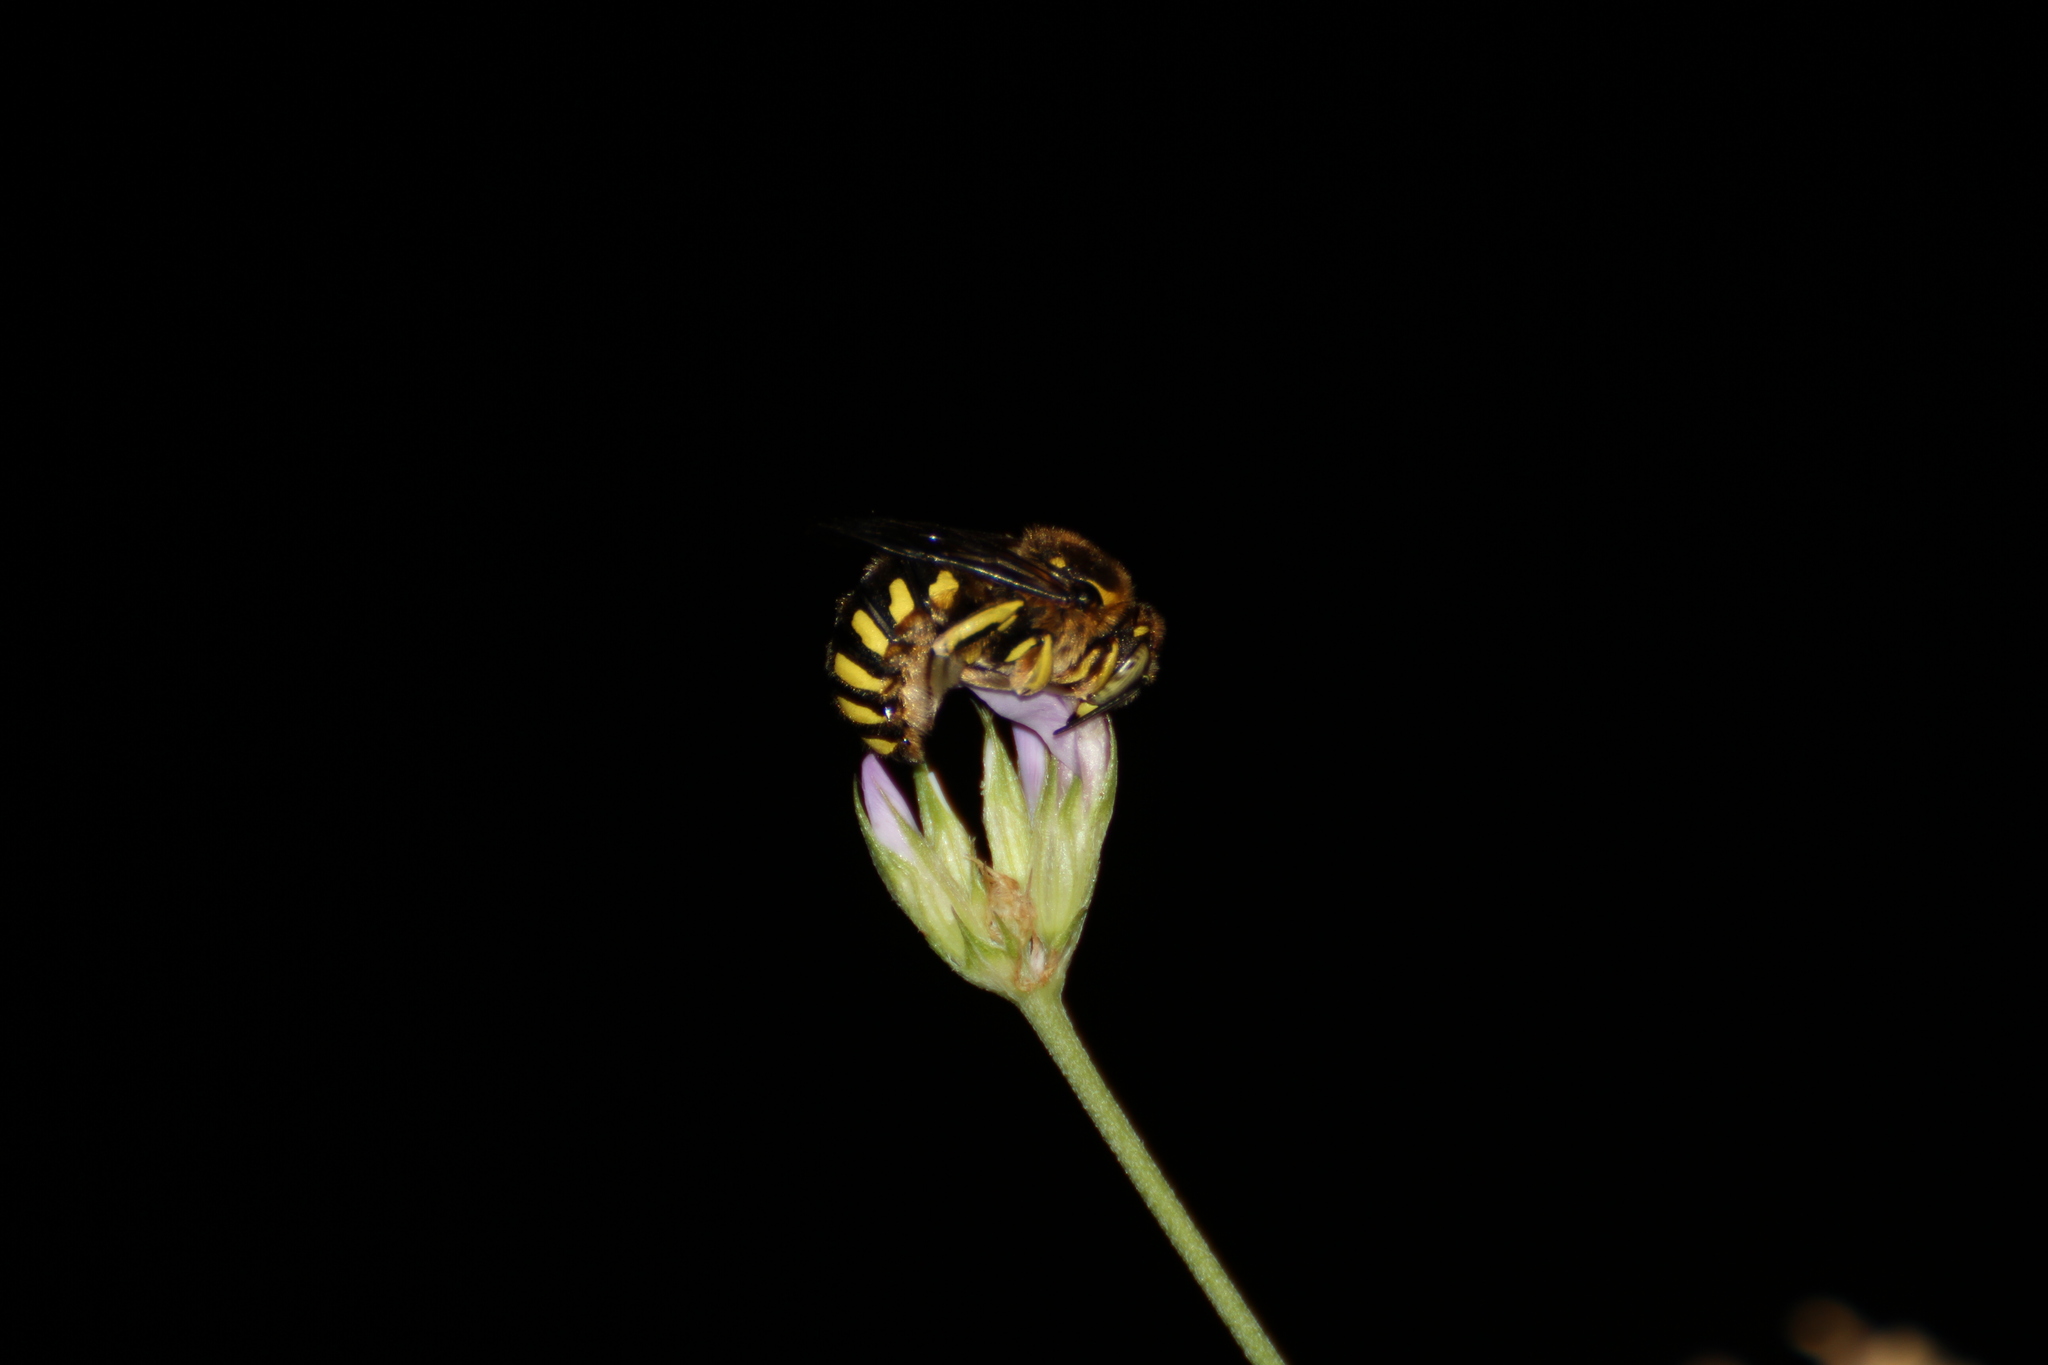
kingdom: Animalia
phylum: Arthropoda
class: Insecta
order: Hymenoptera
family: Megachilidae
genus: Anthidium
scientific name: Anthidium florentinum
